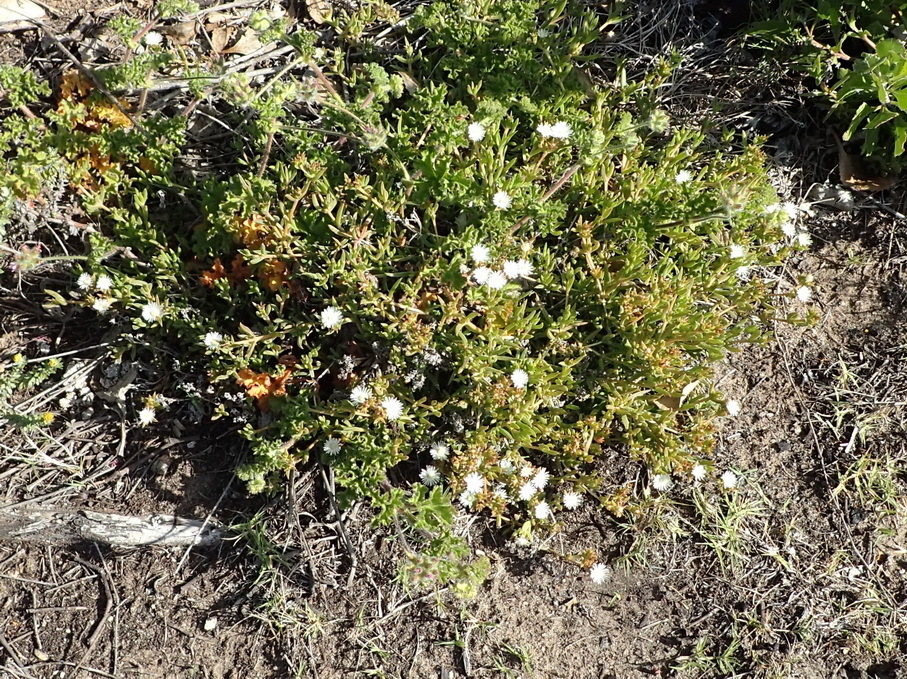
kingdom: Plantae
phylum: Tracheophyta
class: Magnoliopsida
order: Caryophyllales
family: Aizoaceae
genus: Delosperma
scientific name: Delosperma inconspicuum
